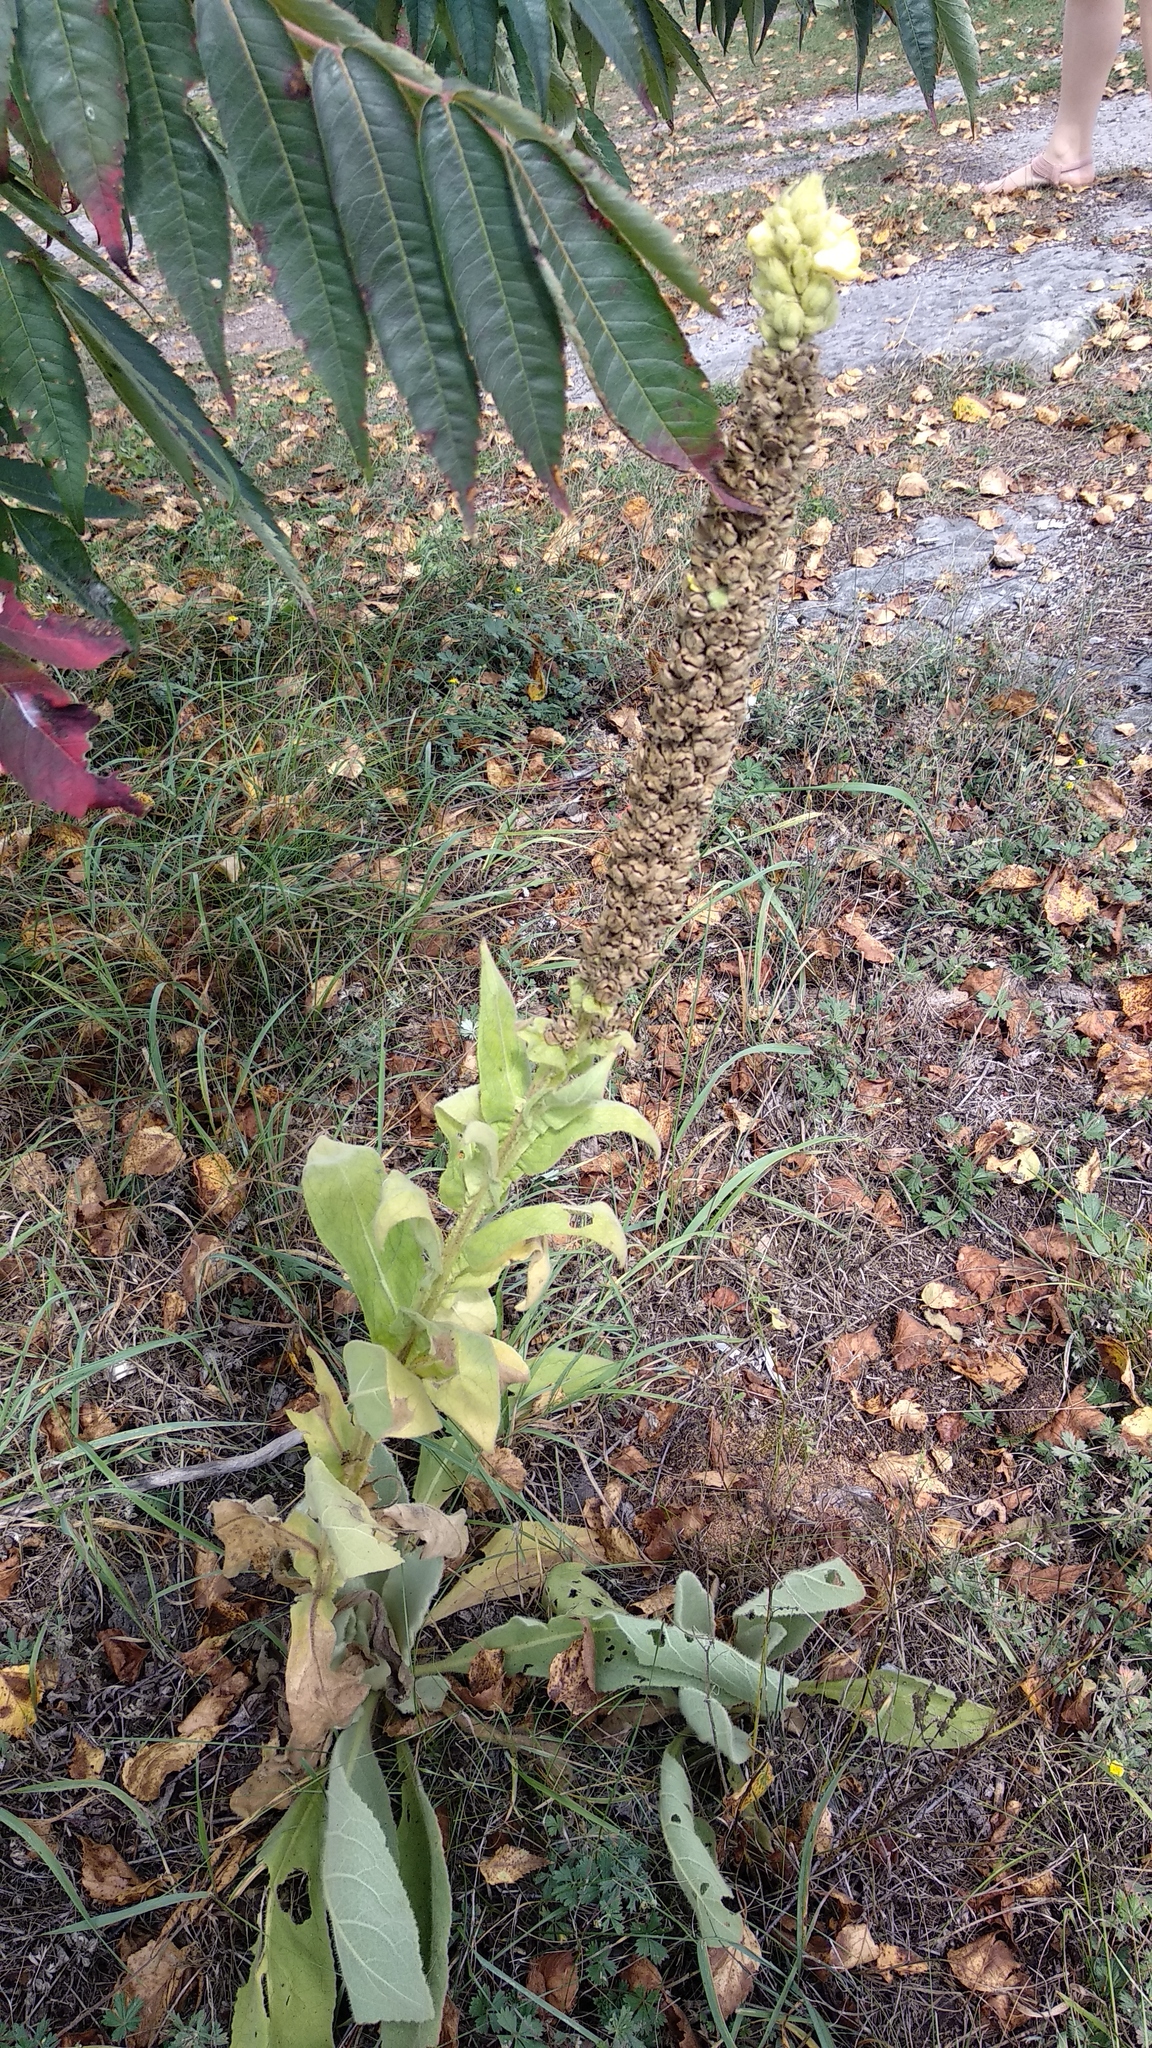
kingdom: Plantae
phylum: Tracheophyta
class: Magnoliopsida
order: Lamiales
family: Scrophulariaceae
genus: Verbascum
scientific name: Verbascum thapsus
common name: Common mullein
